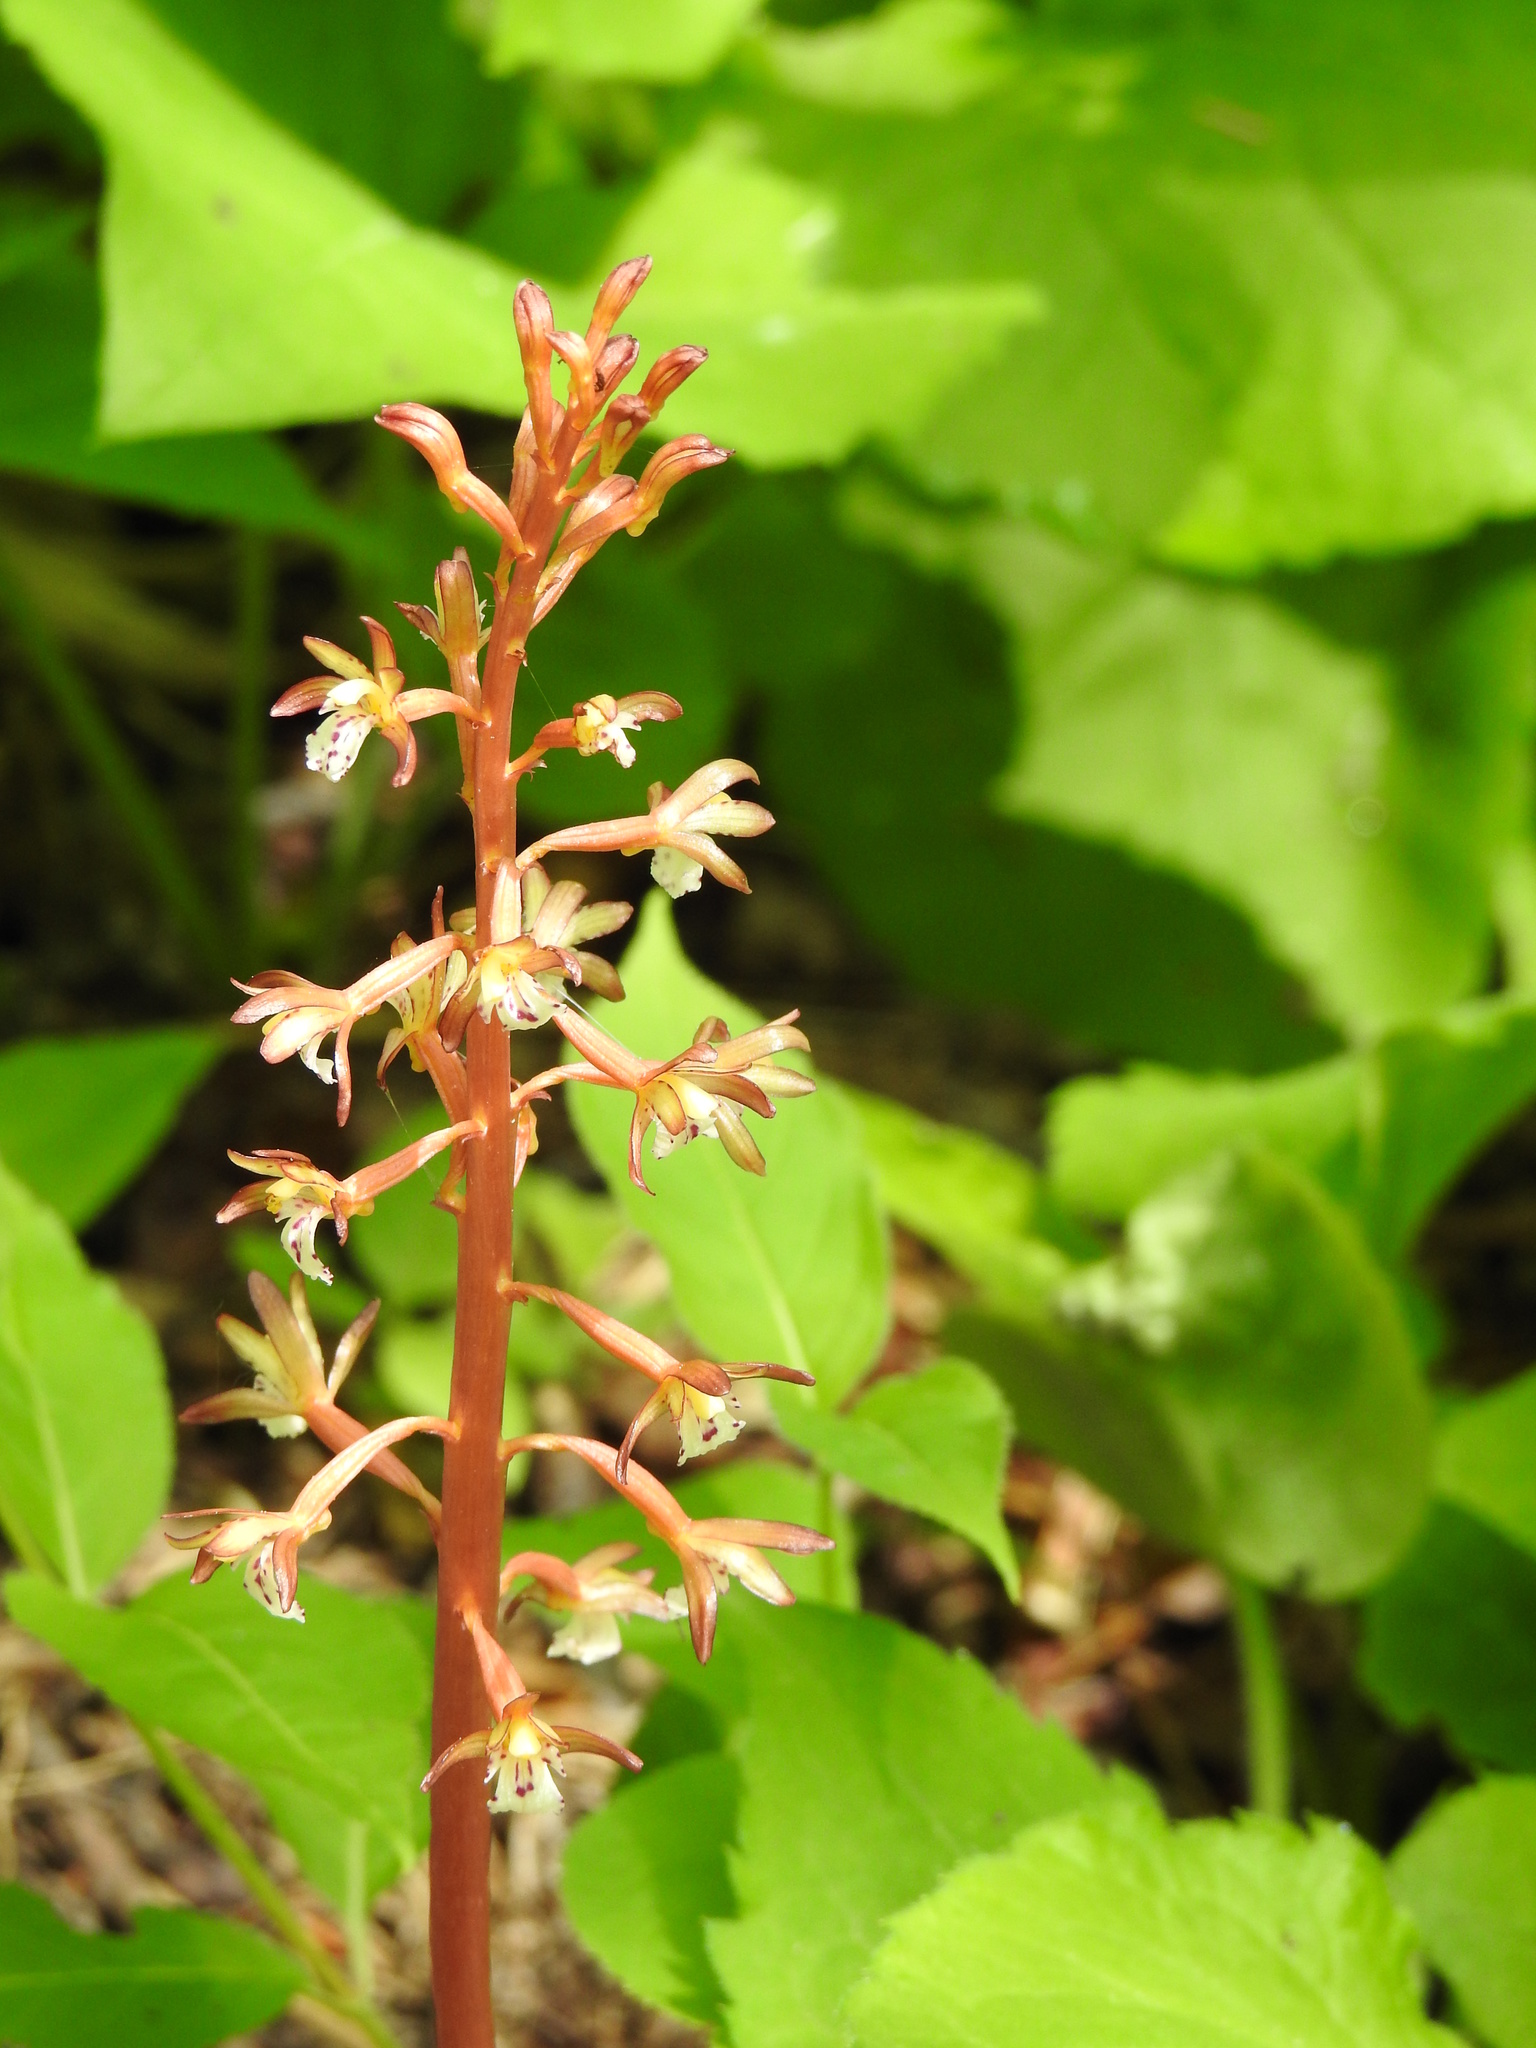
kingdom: Plantae
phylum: Tracheophyta
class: Liliopsida
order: Asparagales
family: Orchidaceae
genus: Corallorhiza
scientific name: Corallorhiza maculata
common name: Spotted coralroot
